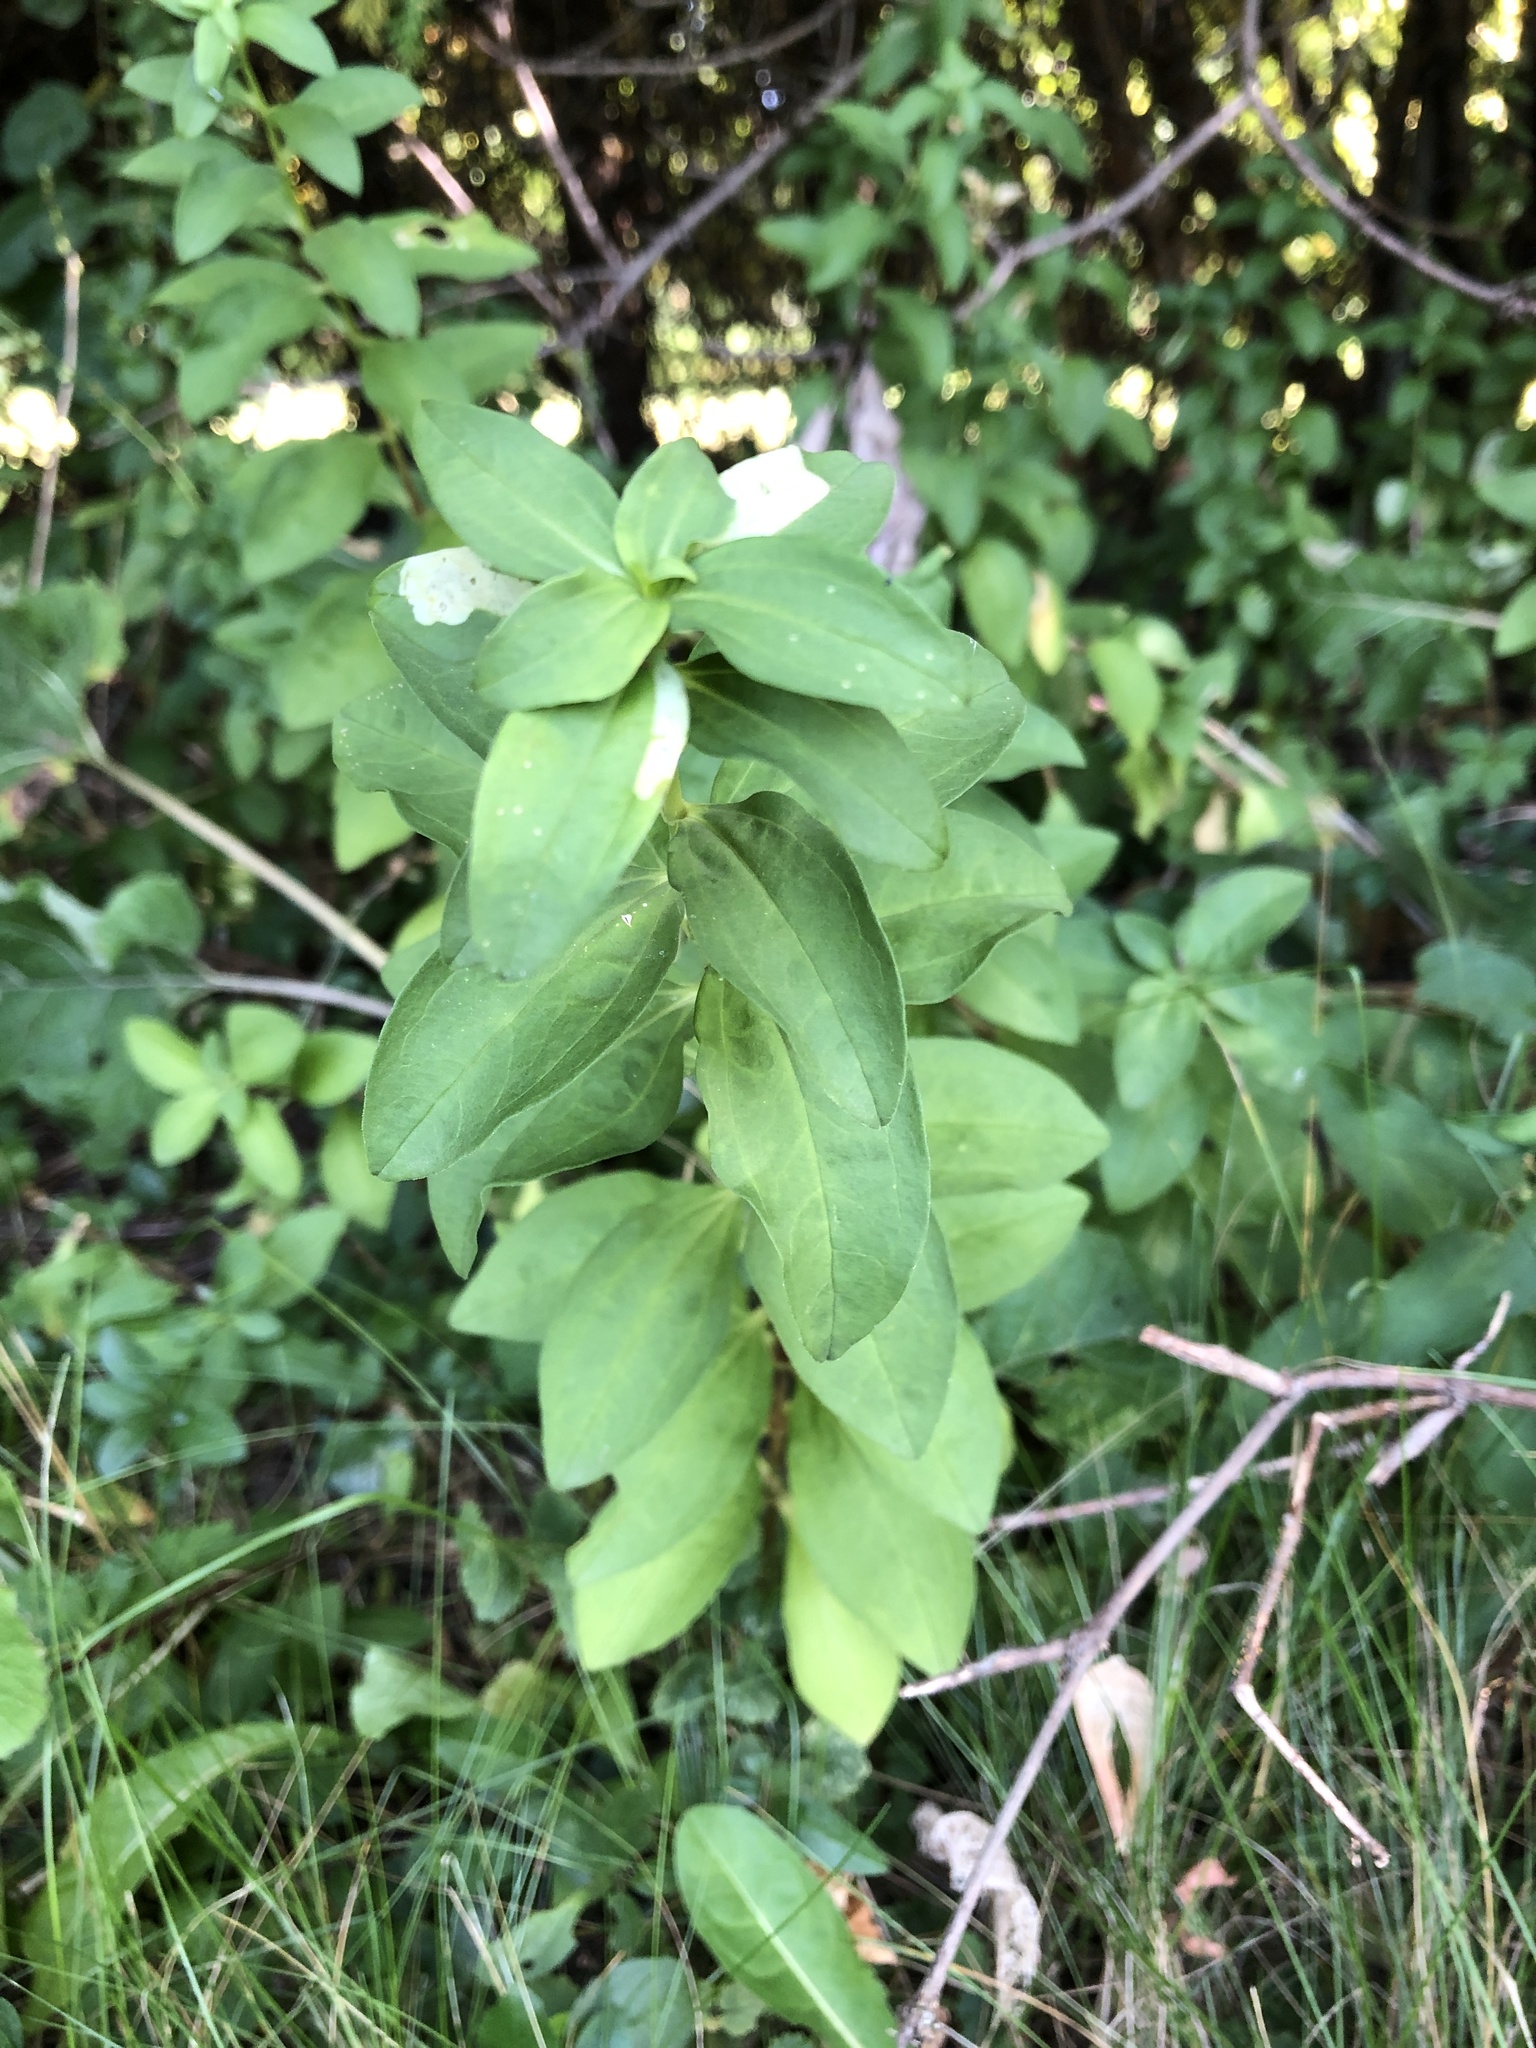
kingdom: Plantae
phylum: Tracheophyta
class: Magnoliopsida
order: Caryophyllales
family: Caryophyllaceae
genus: Saponaria
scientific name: Saponaria officinalis
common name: Soapwort
